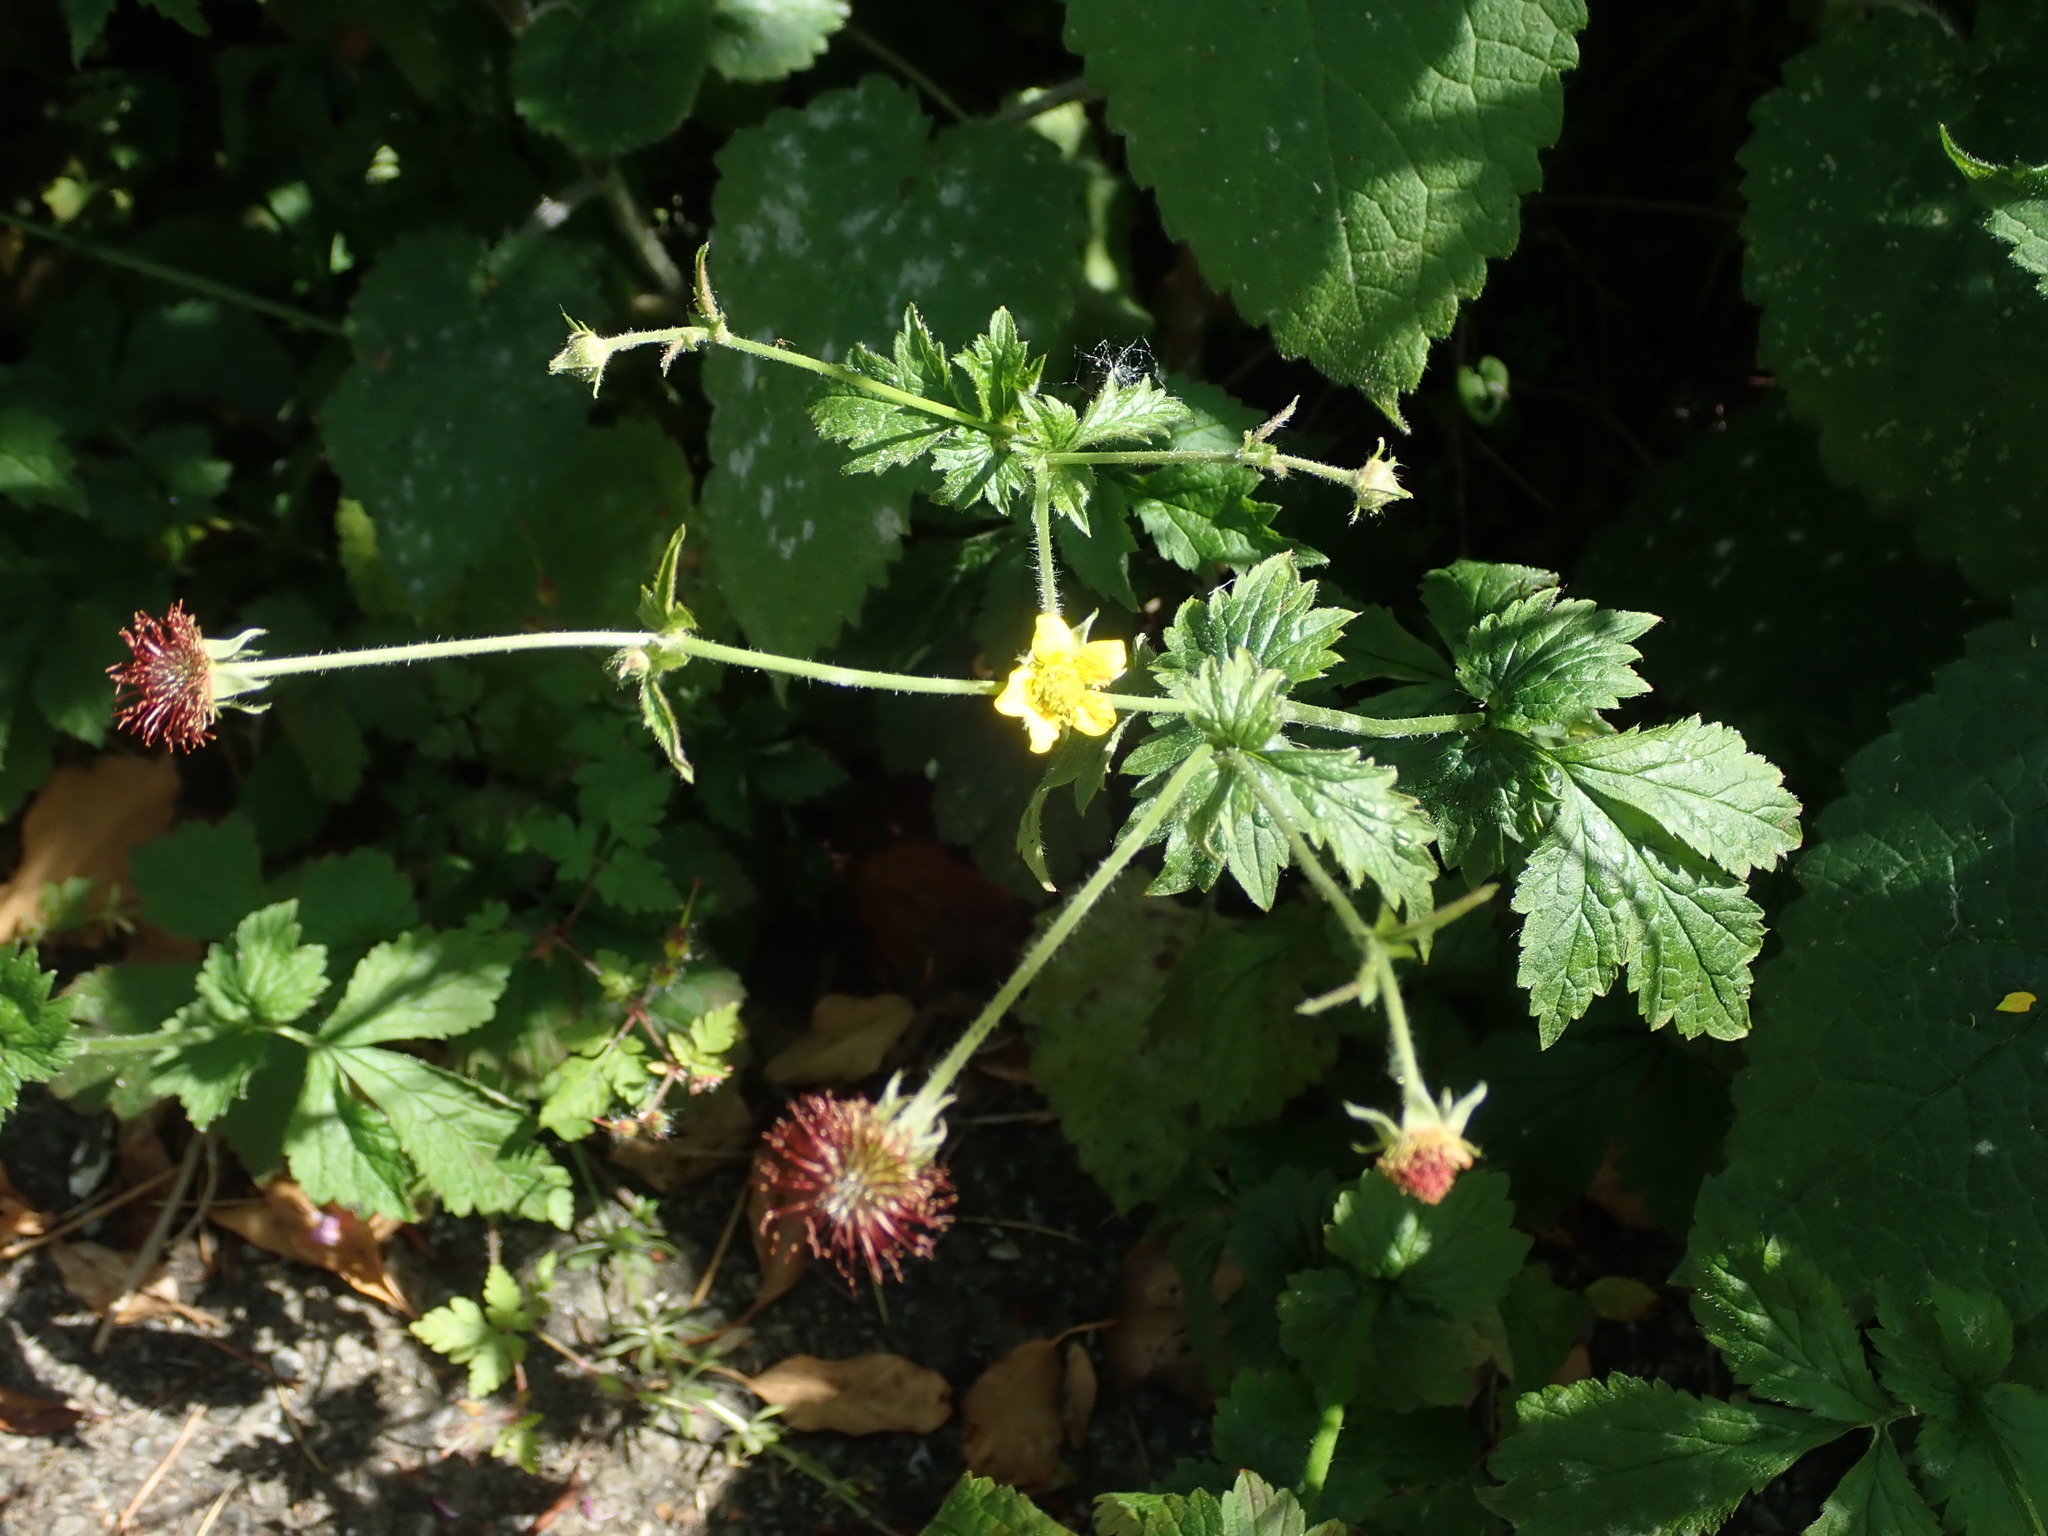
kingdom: Plantae
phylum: Tracheophyta
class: Magnoliopsida
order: Rosales
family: Rosaceae
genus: Geum
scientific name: Geum urbanum
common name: Wood avens
